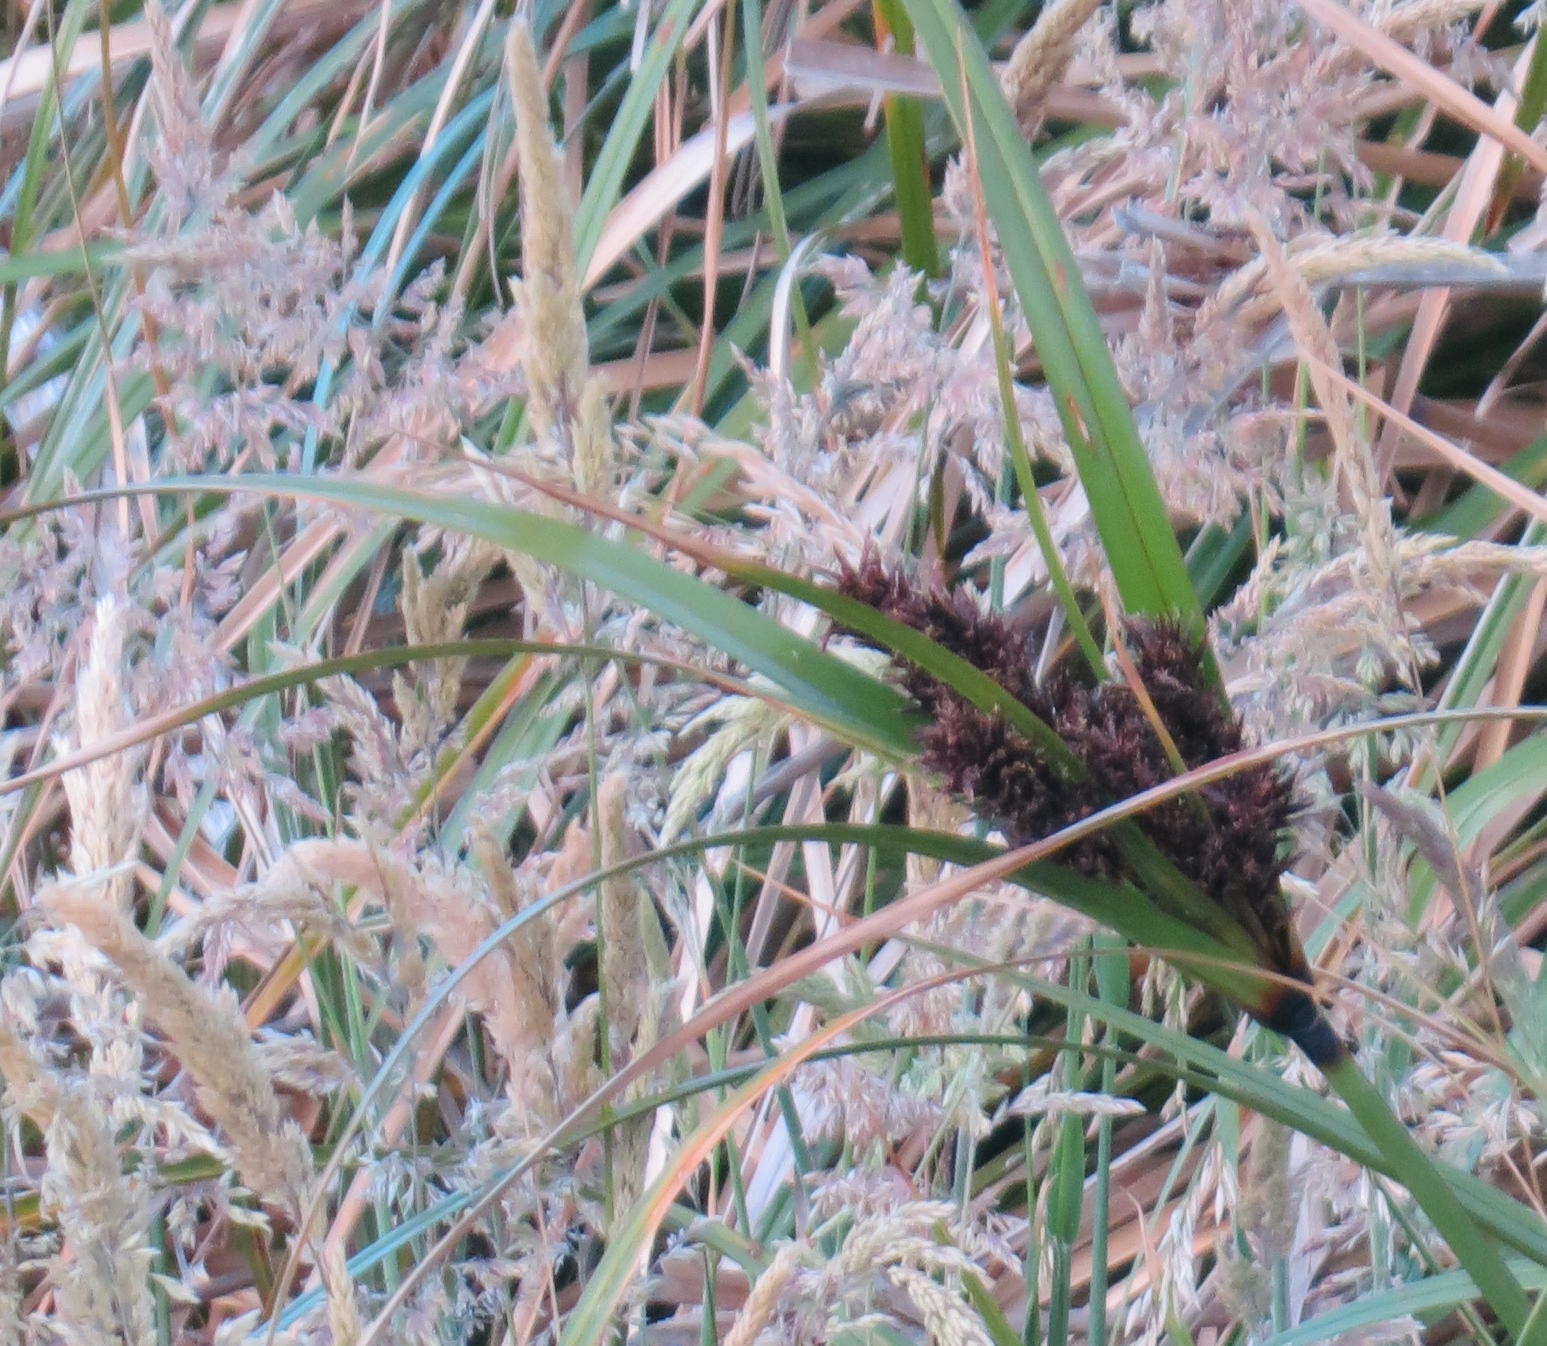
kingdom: Plantae
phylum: Tracheophyta
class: Liliopsida
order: Poales
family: Cyperaceae
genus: Cyperus
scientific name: Cyperus ustulatus
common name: Giant umbrella-sedge
